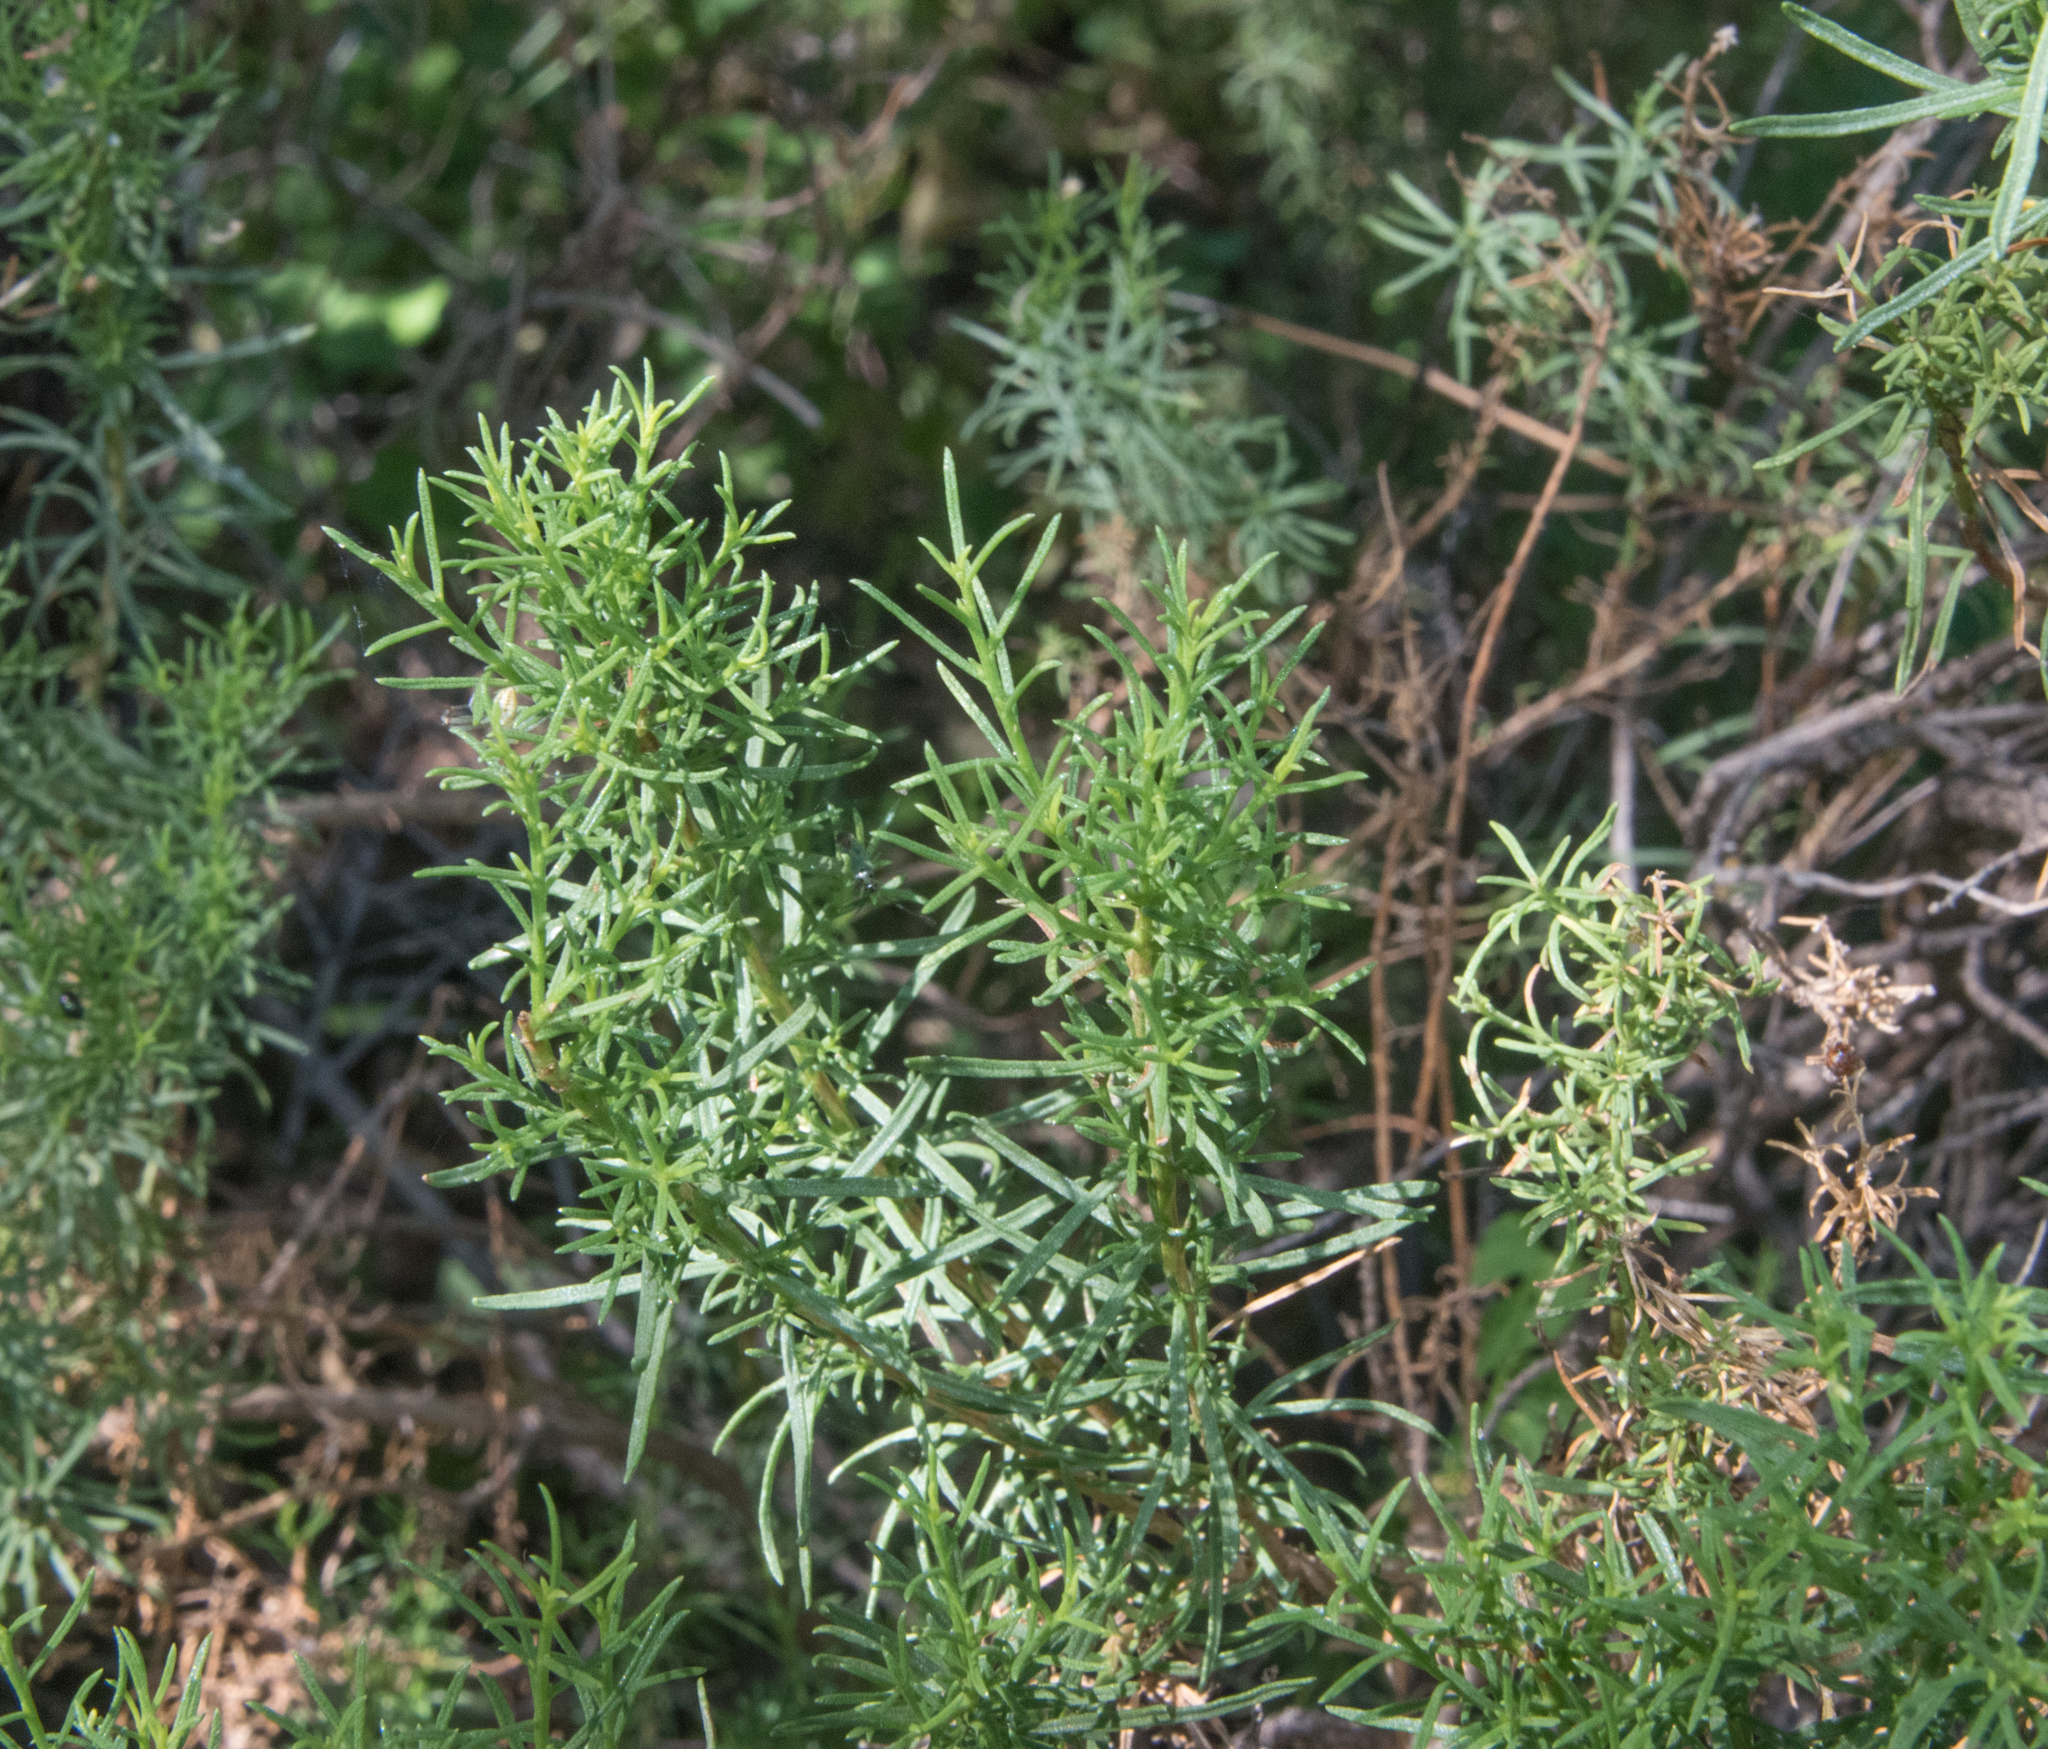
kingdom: Plantae
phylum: Tracheophyta
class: Magnoliopsida
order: Asterales
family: Asteraceae
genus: Ericameria
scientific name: Ericameria laricifolia
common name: Turpentine-bush
